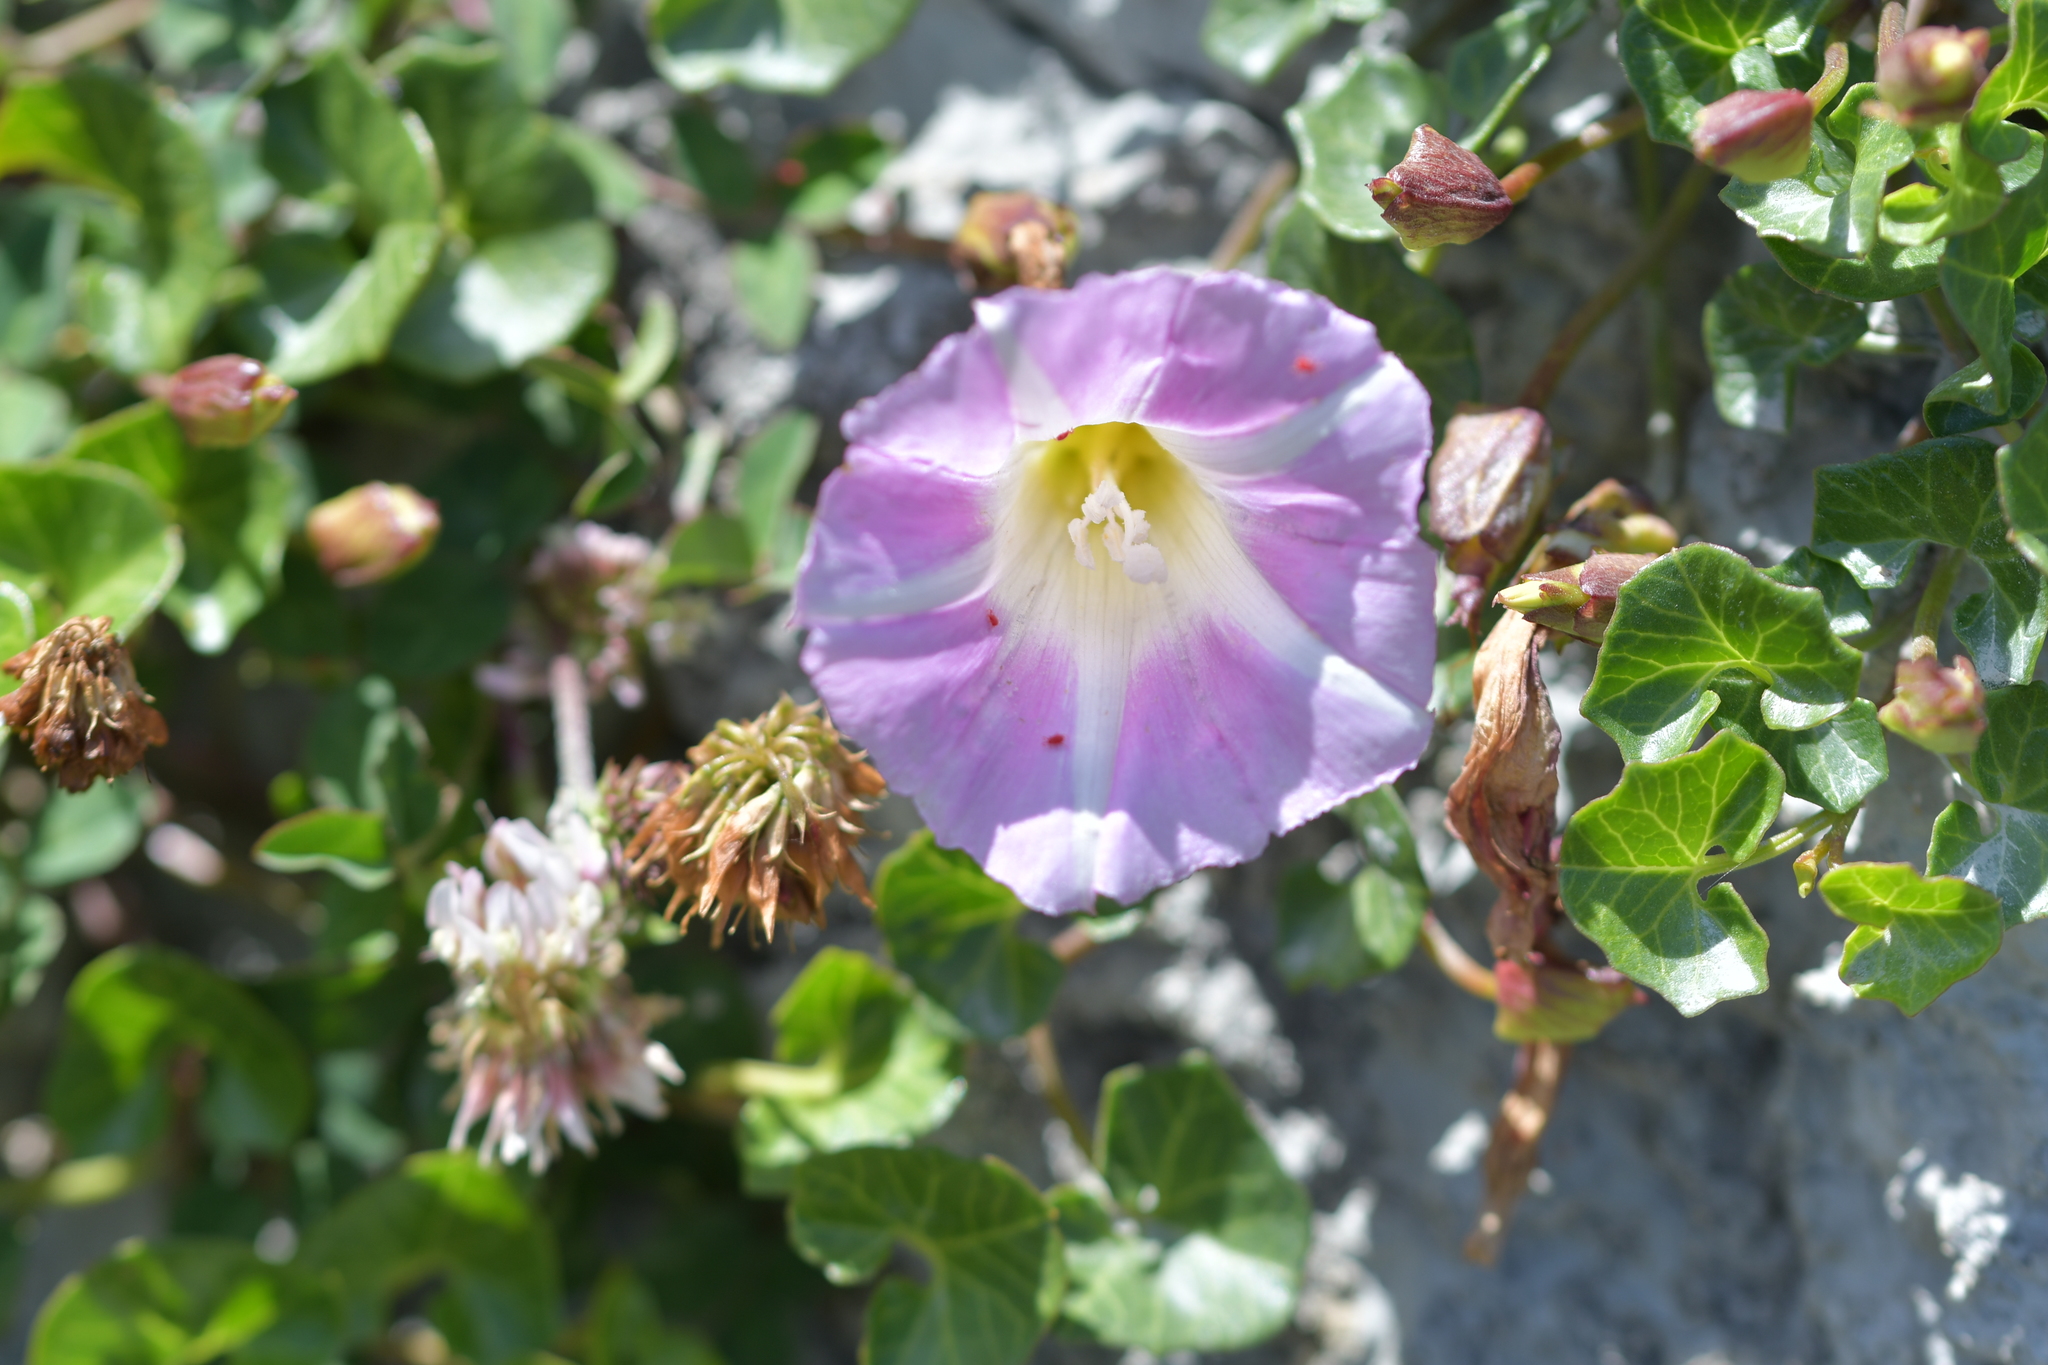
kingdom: Plantae
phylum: Tracheophyta
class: Magnoliopsida
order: Solanales
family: Convolvulaceae
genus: Calystegia
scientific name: Calystegia soldanella
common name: Sea bindweed
